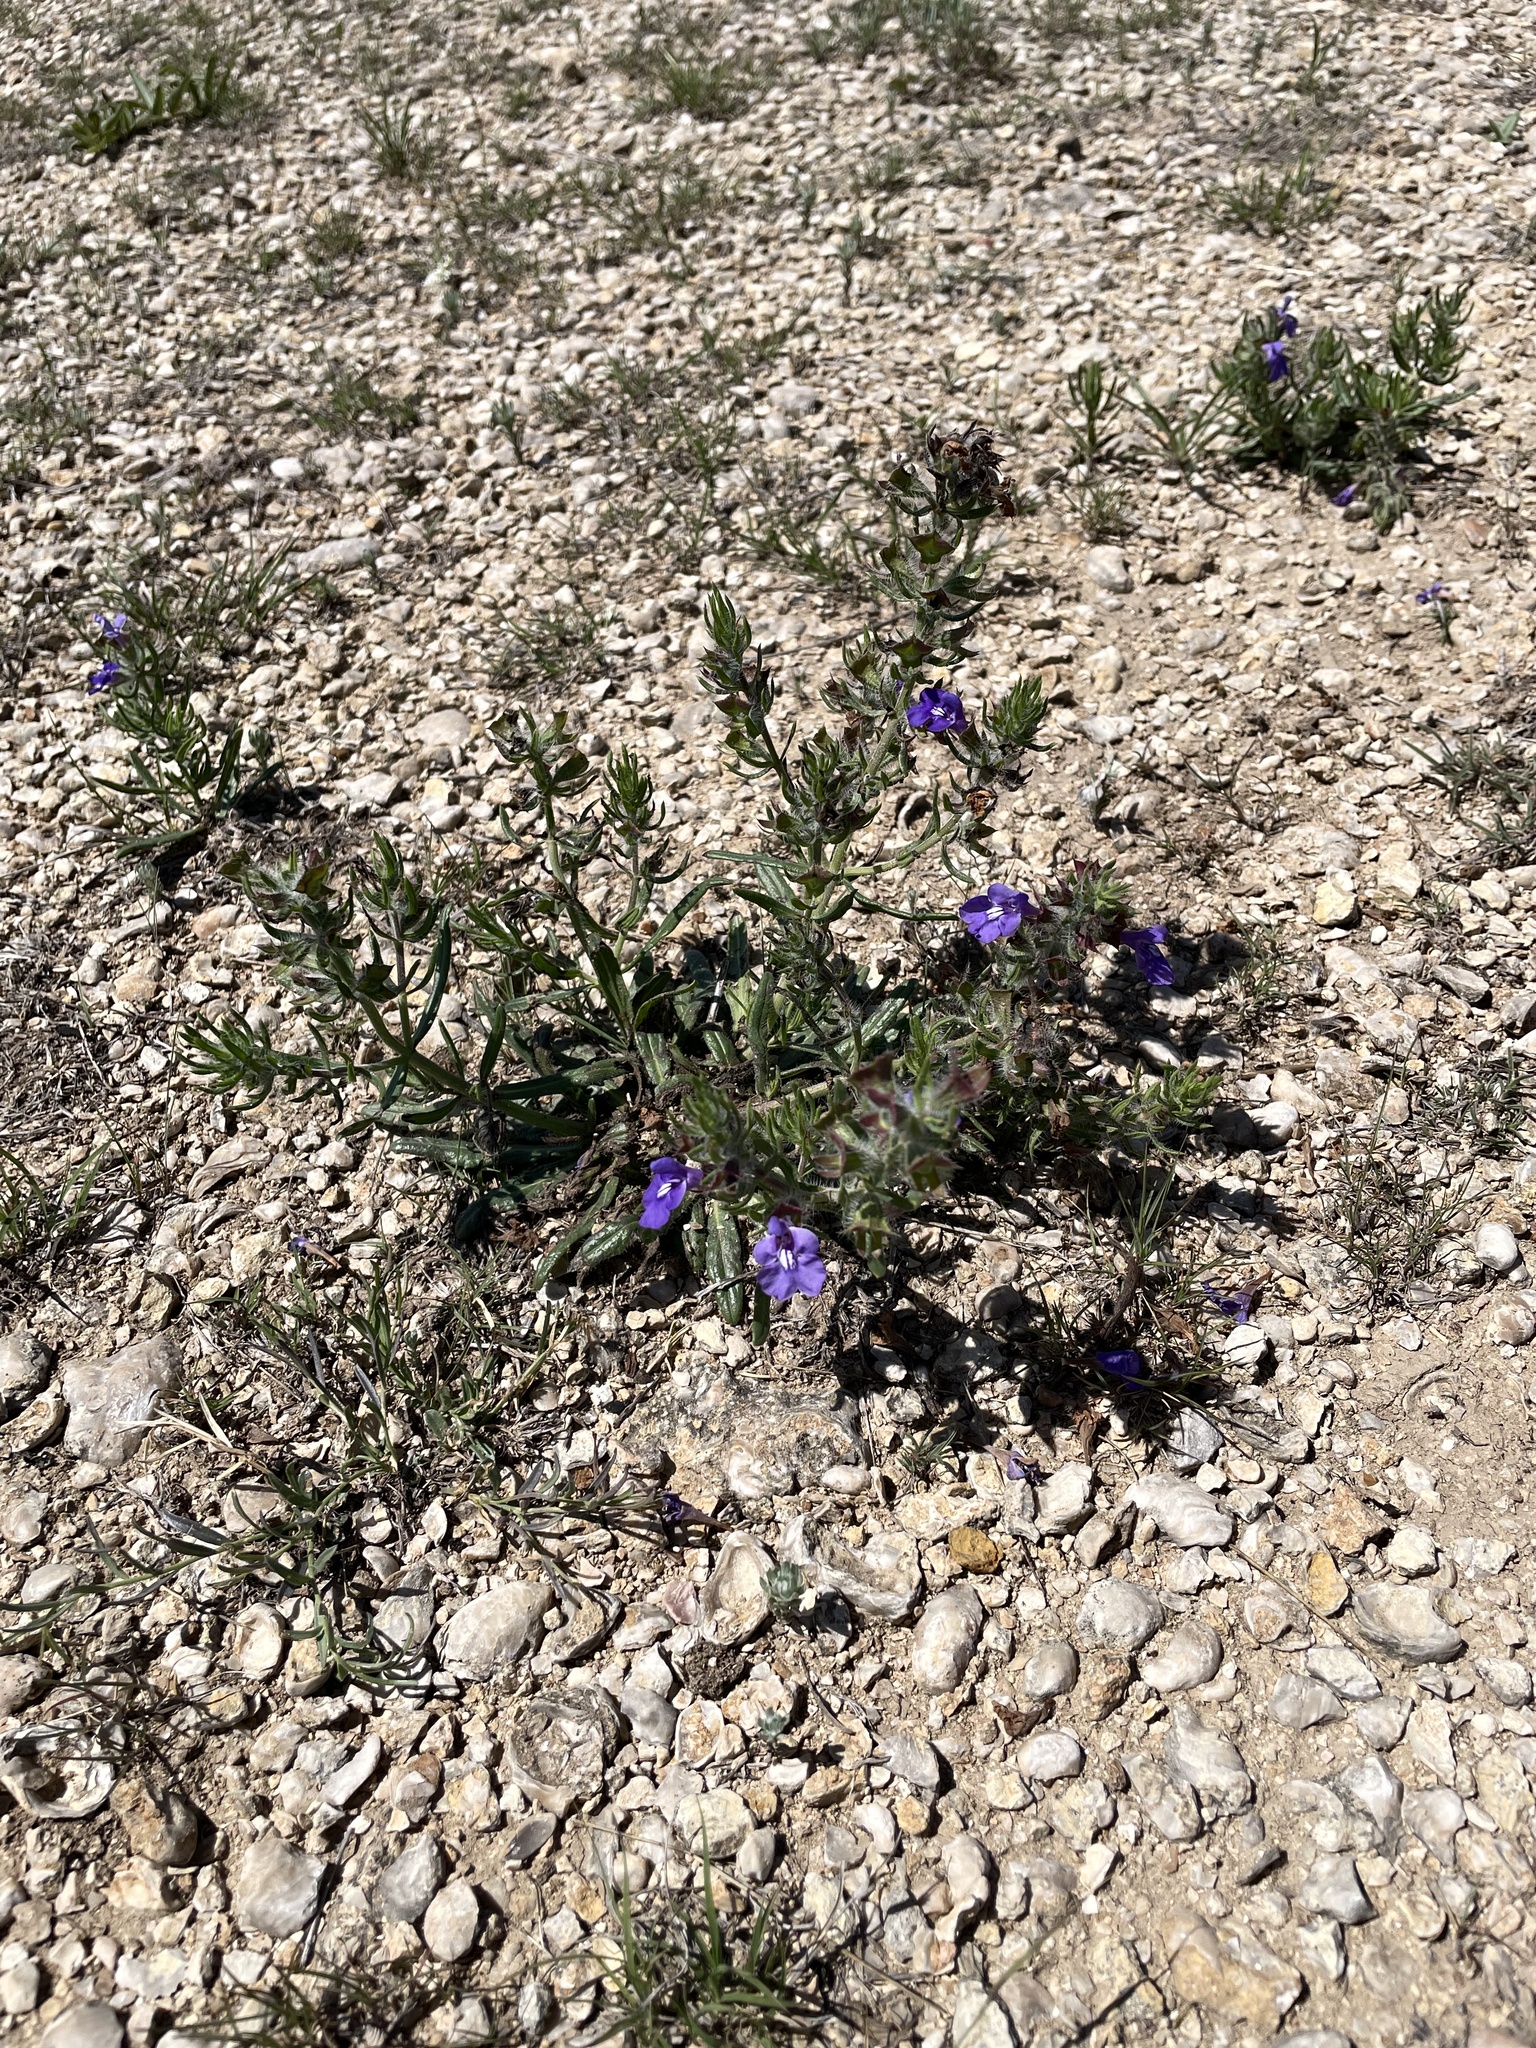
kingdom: Plantae
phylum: Tracheophyta
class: Magnoliopsida
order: Lamiales
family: Lamiaceae
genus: Salvia
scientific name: Salvia texana
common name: Texas sage
